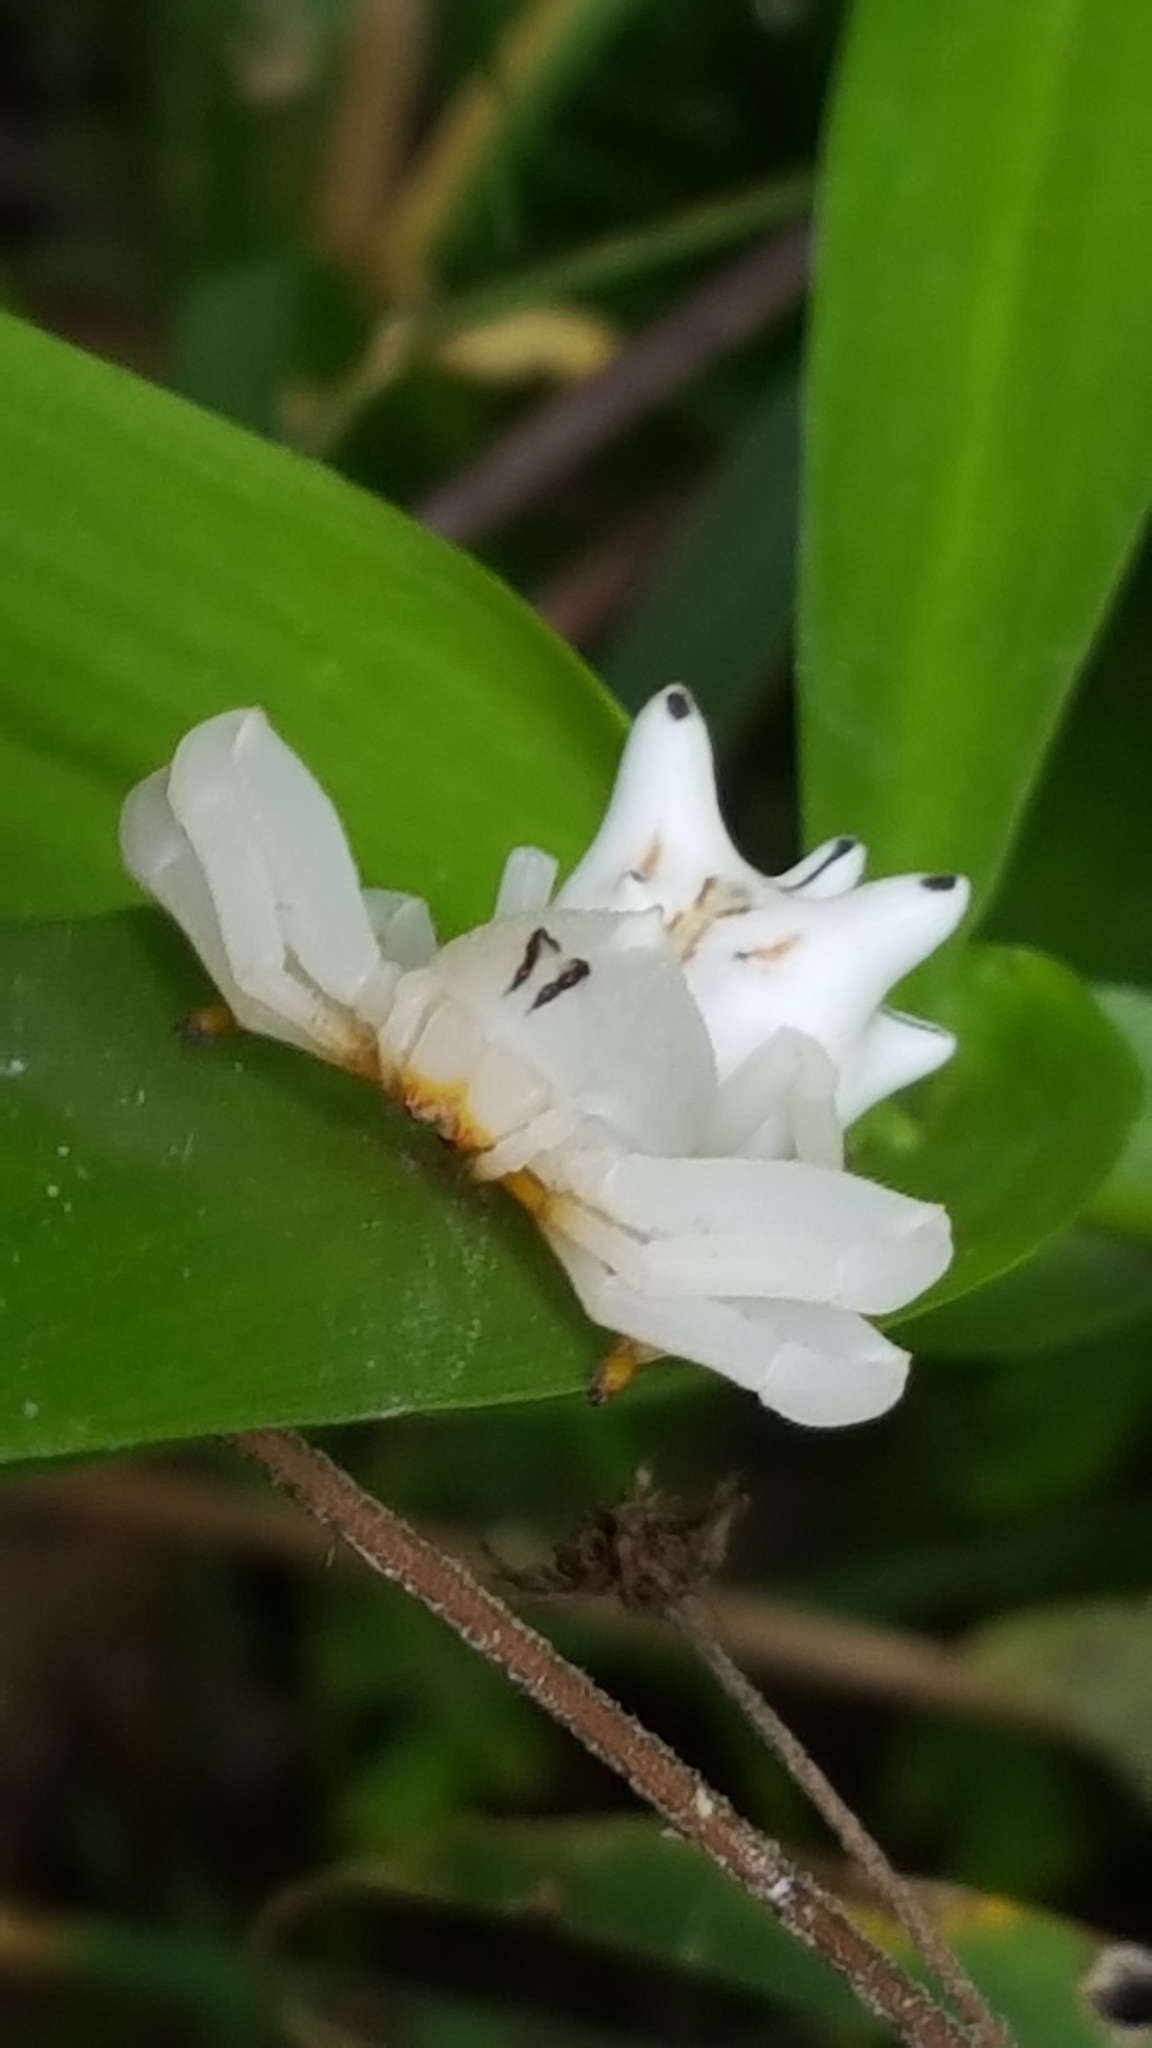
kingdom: Animalia
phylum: Arthropoda
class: Arachnida
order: Araneae
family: Thomisidae
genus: Epicadus
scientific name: Epicadus heterogaster
